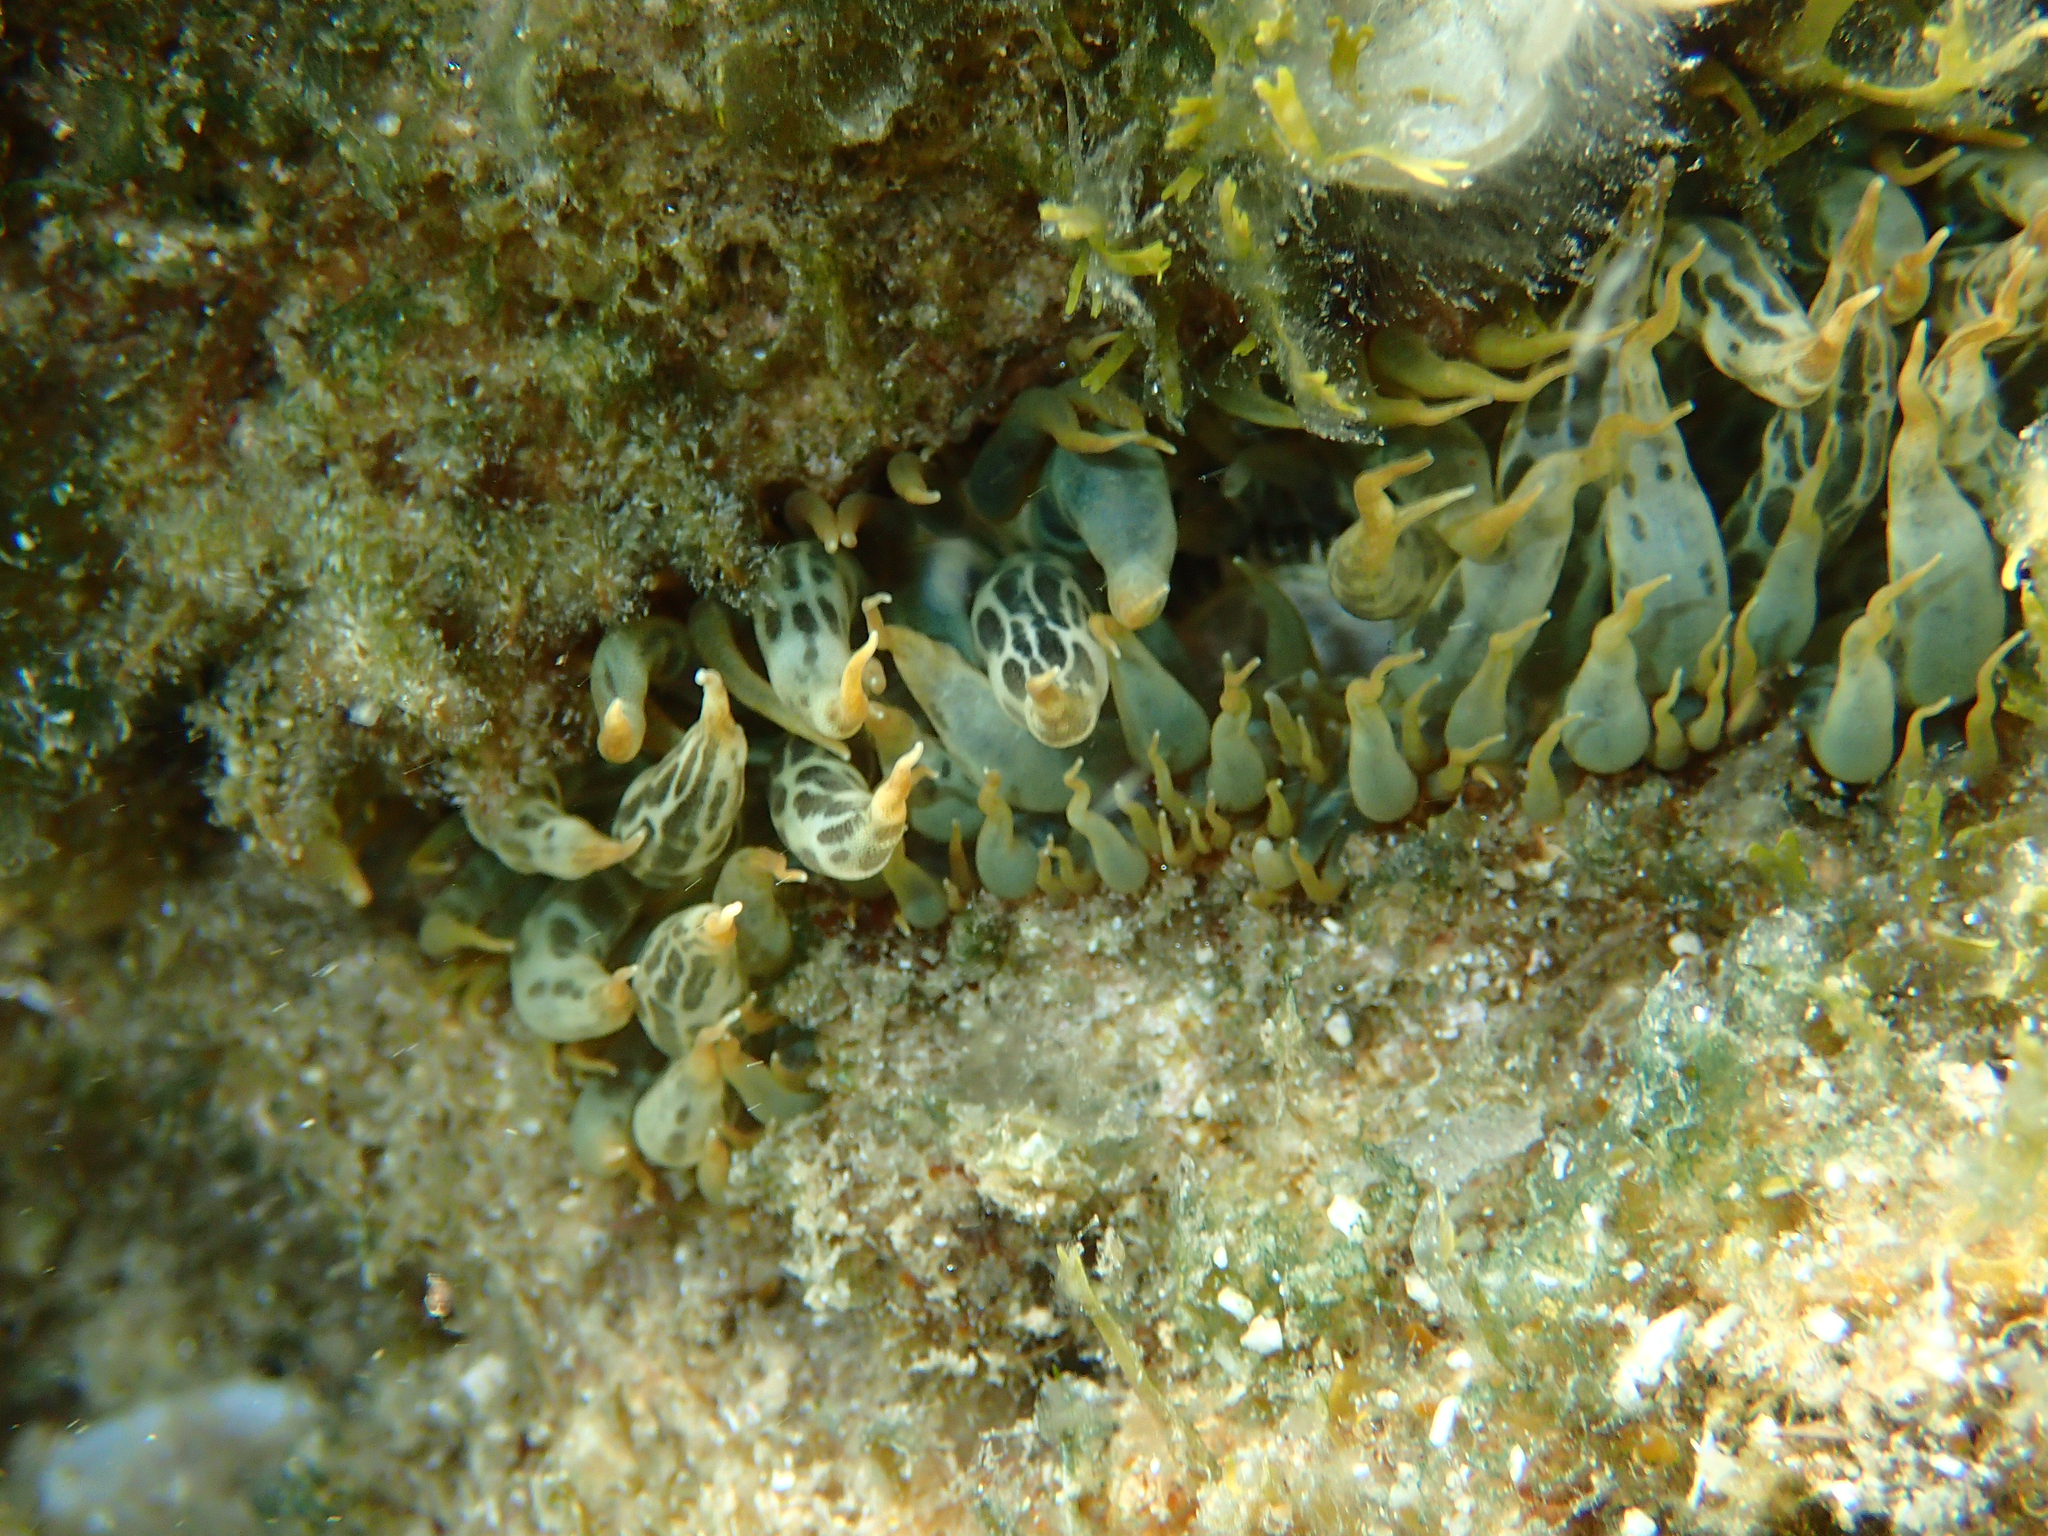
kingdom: Animalia
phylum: Cnidaria
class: Anthozoa
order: Actiniaria
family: Aiptasiidae
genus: Aiptasia
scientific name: Aiptasia mutabilis
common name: Trumpet anemone
